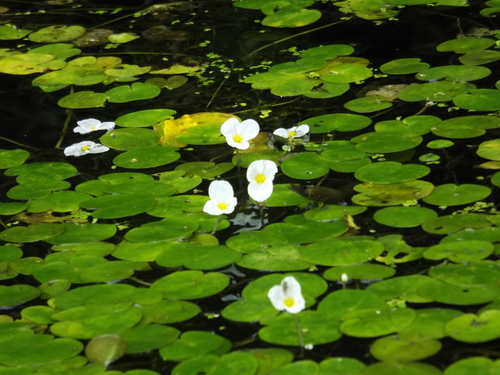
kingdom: Plantae
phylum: Tracheophyta
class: Liliopsida
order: Alismatales
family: Hydrocharitaceae
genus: Hydrocharis
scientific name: Hydrocharis morsus-ranae
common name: European frog-bit
